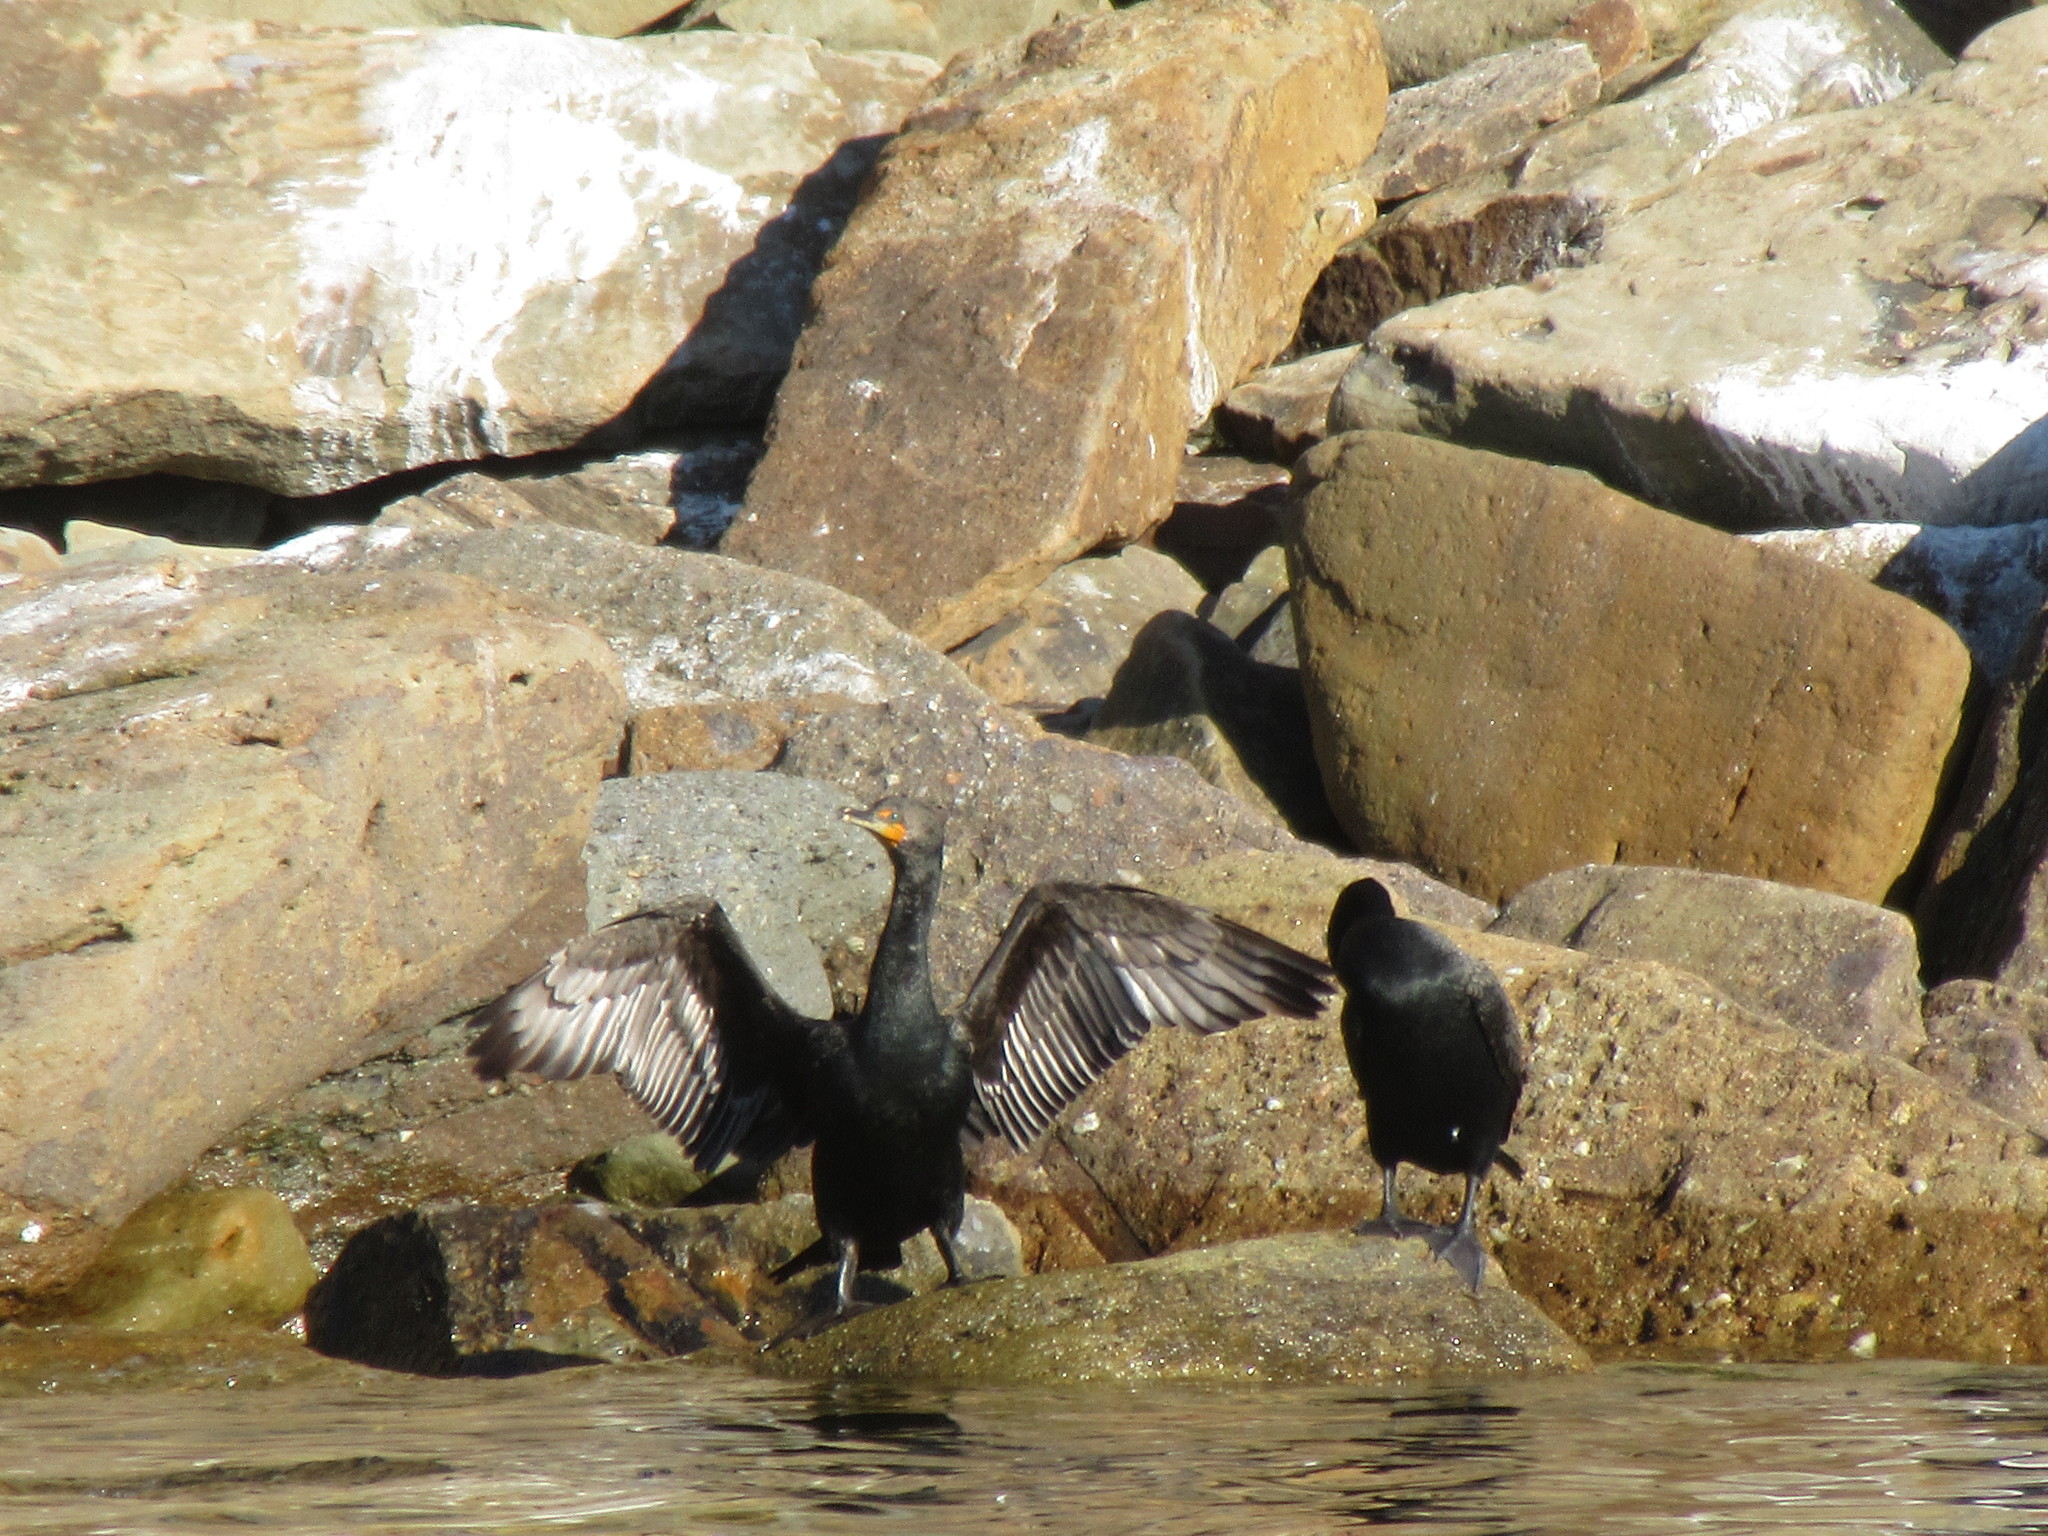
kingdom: Animalia
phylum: Chordata
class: Aves
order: Suliformes
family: Phalacrocoracidae
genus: Phalacrocorax
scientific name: Phalacrocorax auritus
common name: Double-crested cormorant
